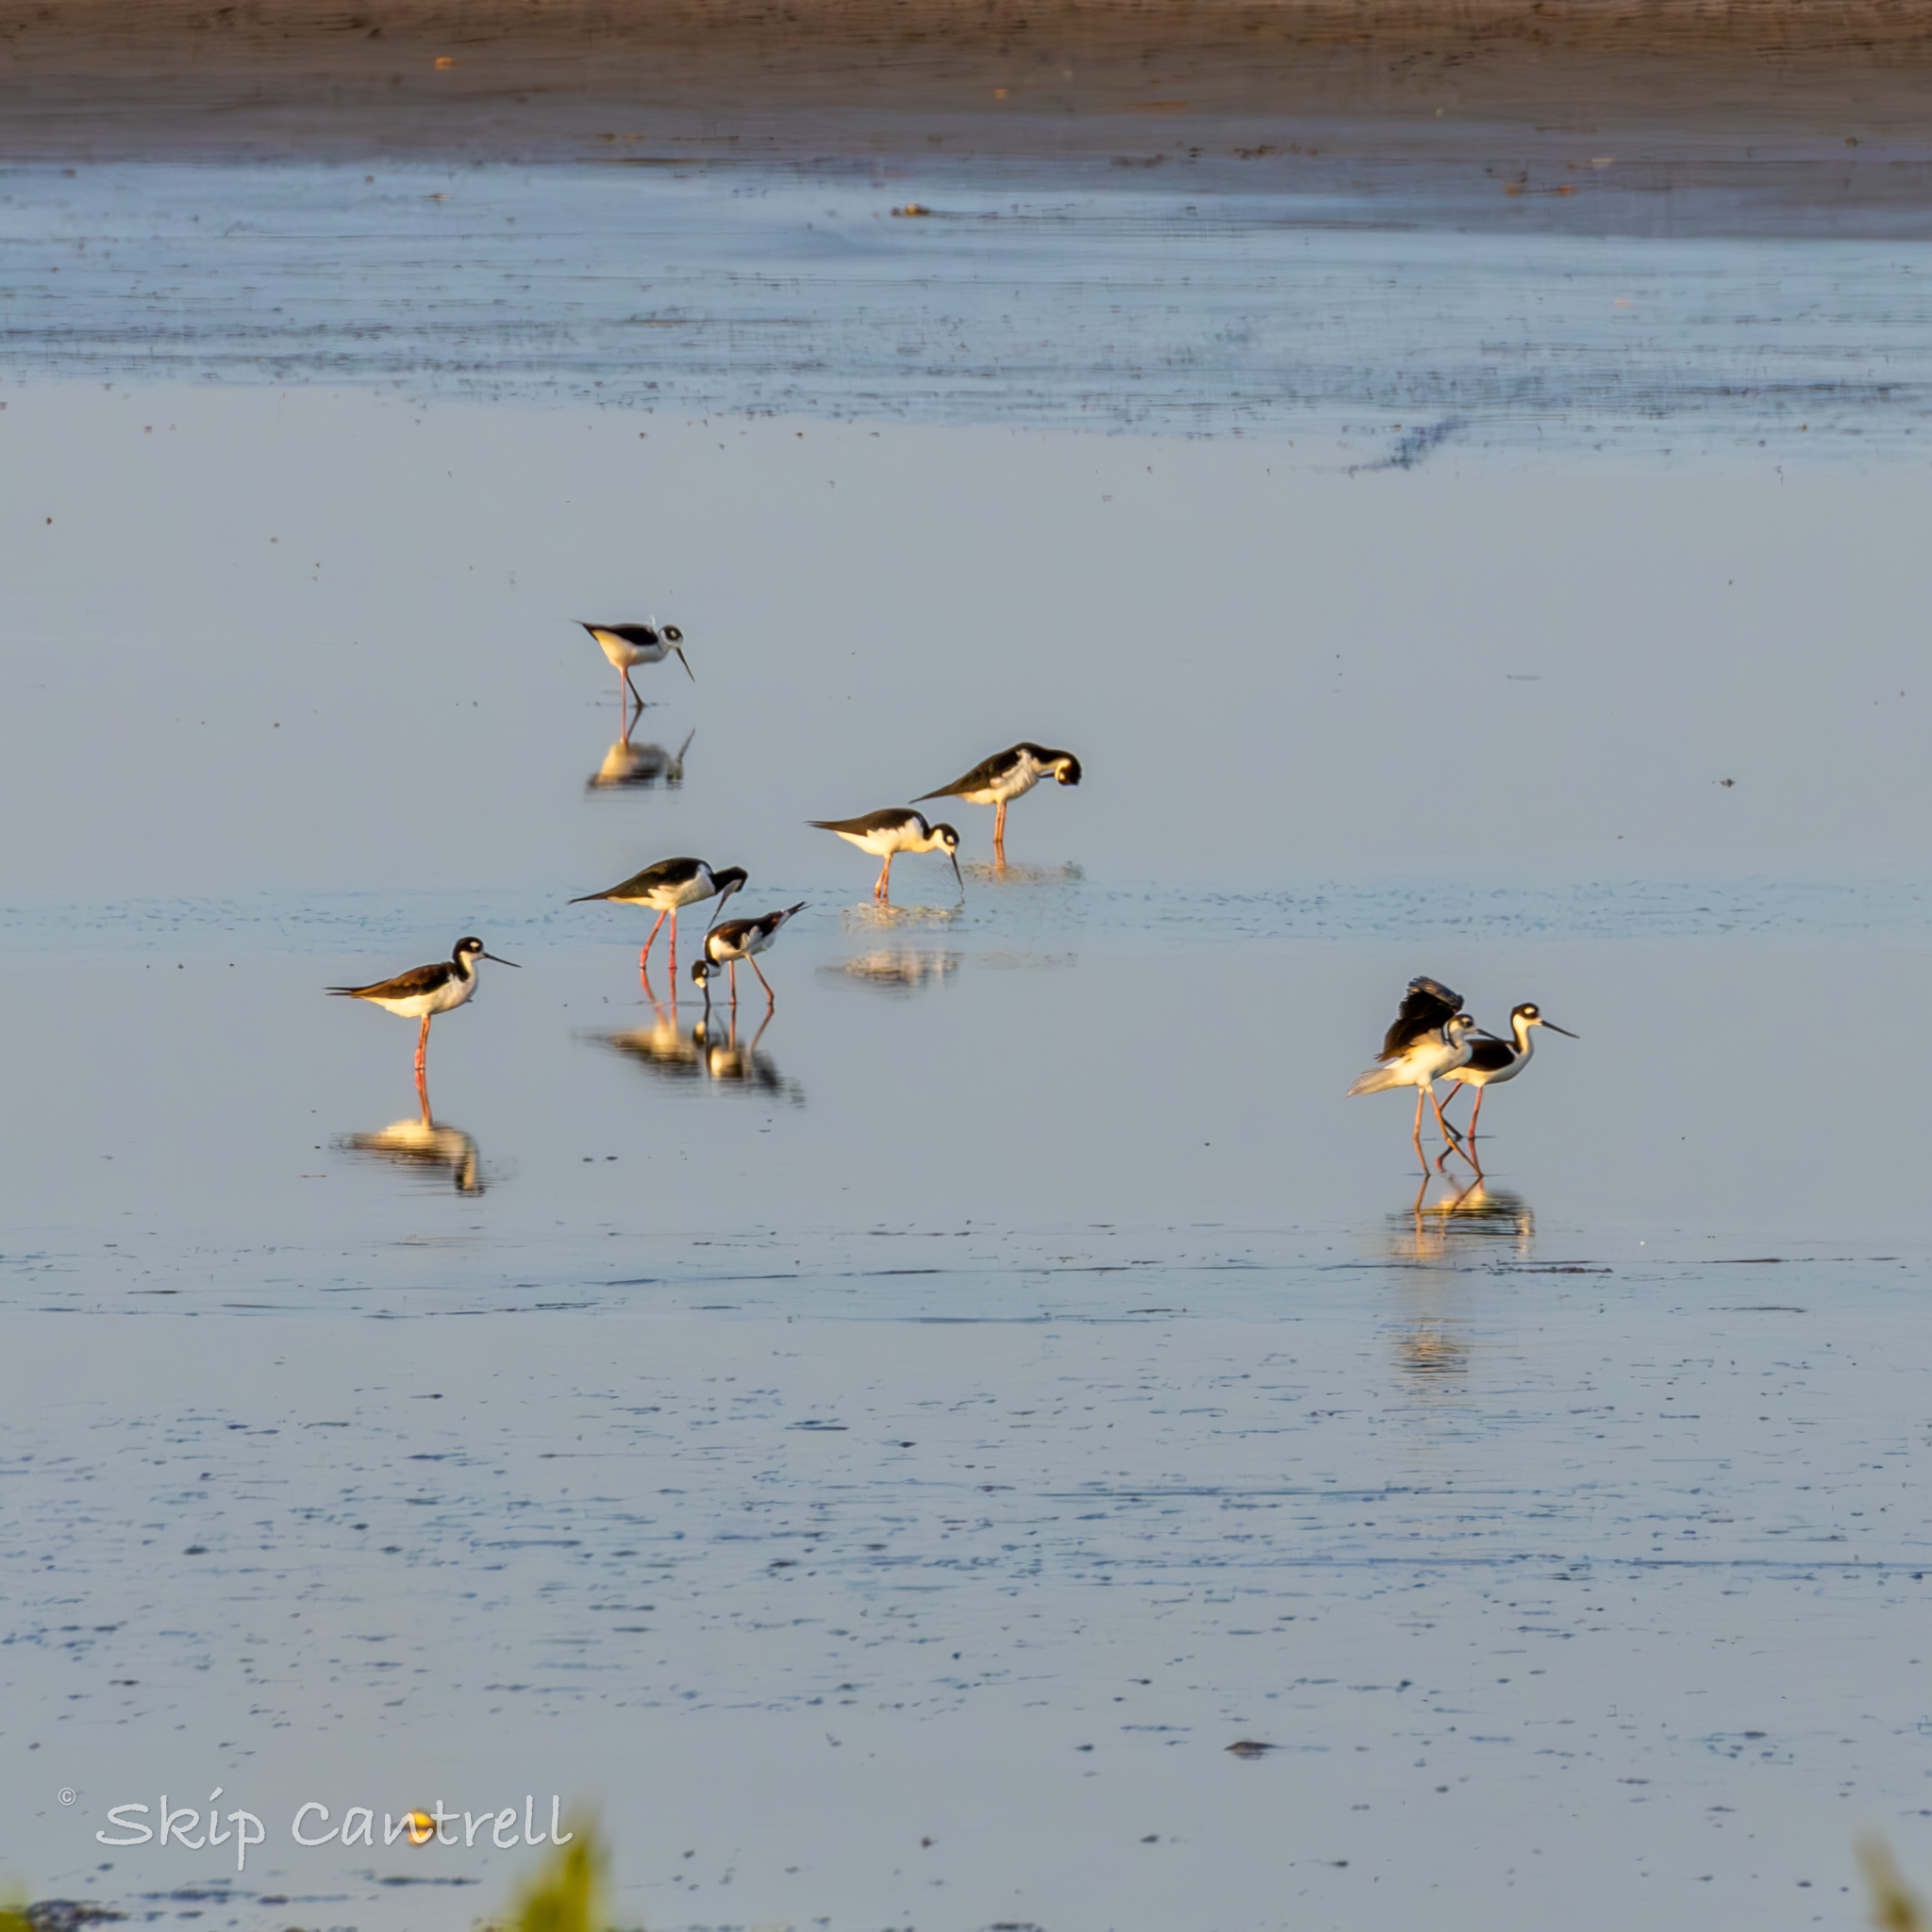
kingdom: Animalia
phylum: Chordata
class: Aves
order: Charadriiformes
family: Recurvirostridae
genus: Himantopus
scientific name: Himantopus mexicanus
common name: Black-necked stilt
